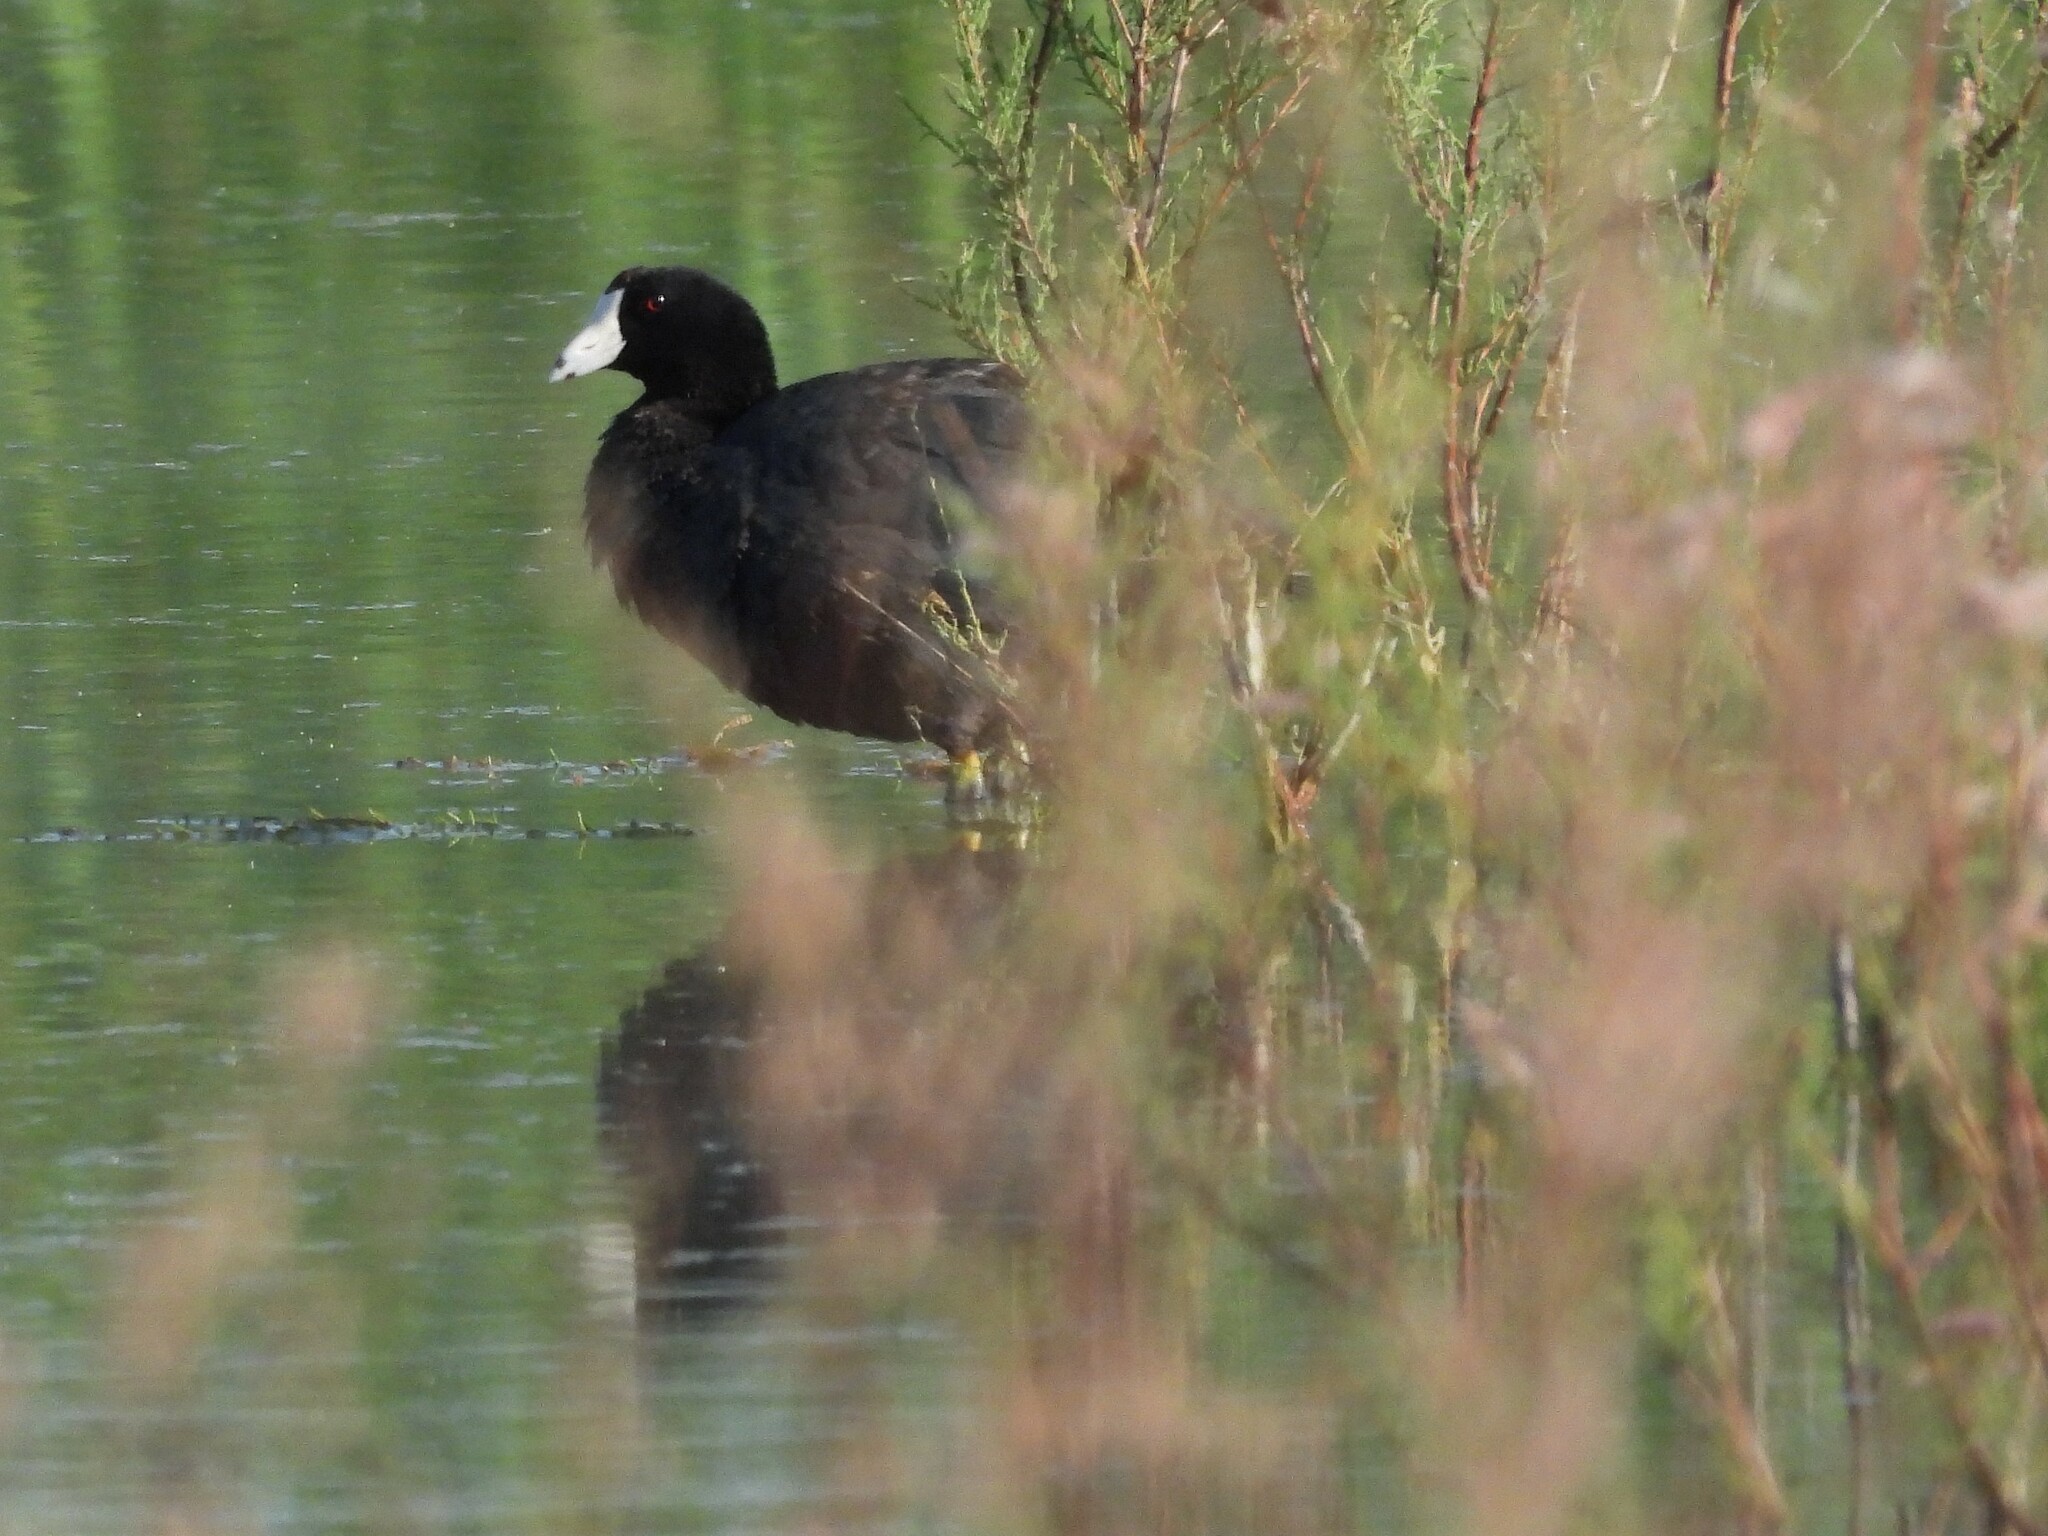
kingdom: Animalia
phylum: Chordata
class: Aves
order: Gruiformes
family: Rallidae
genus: Fulica
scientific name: Fulica americana
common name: American coot
